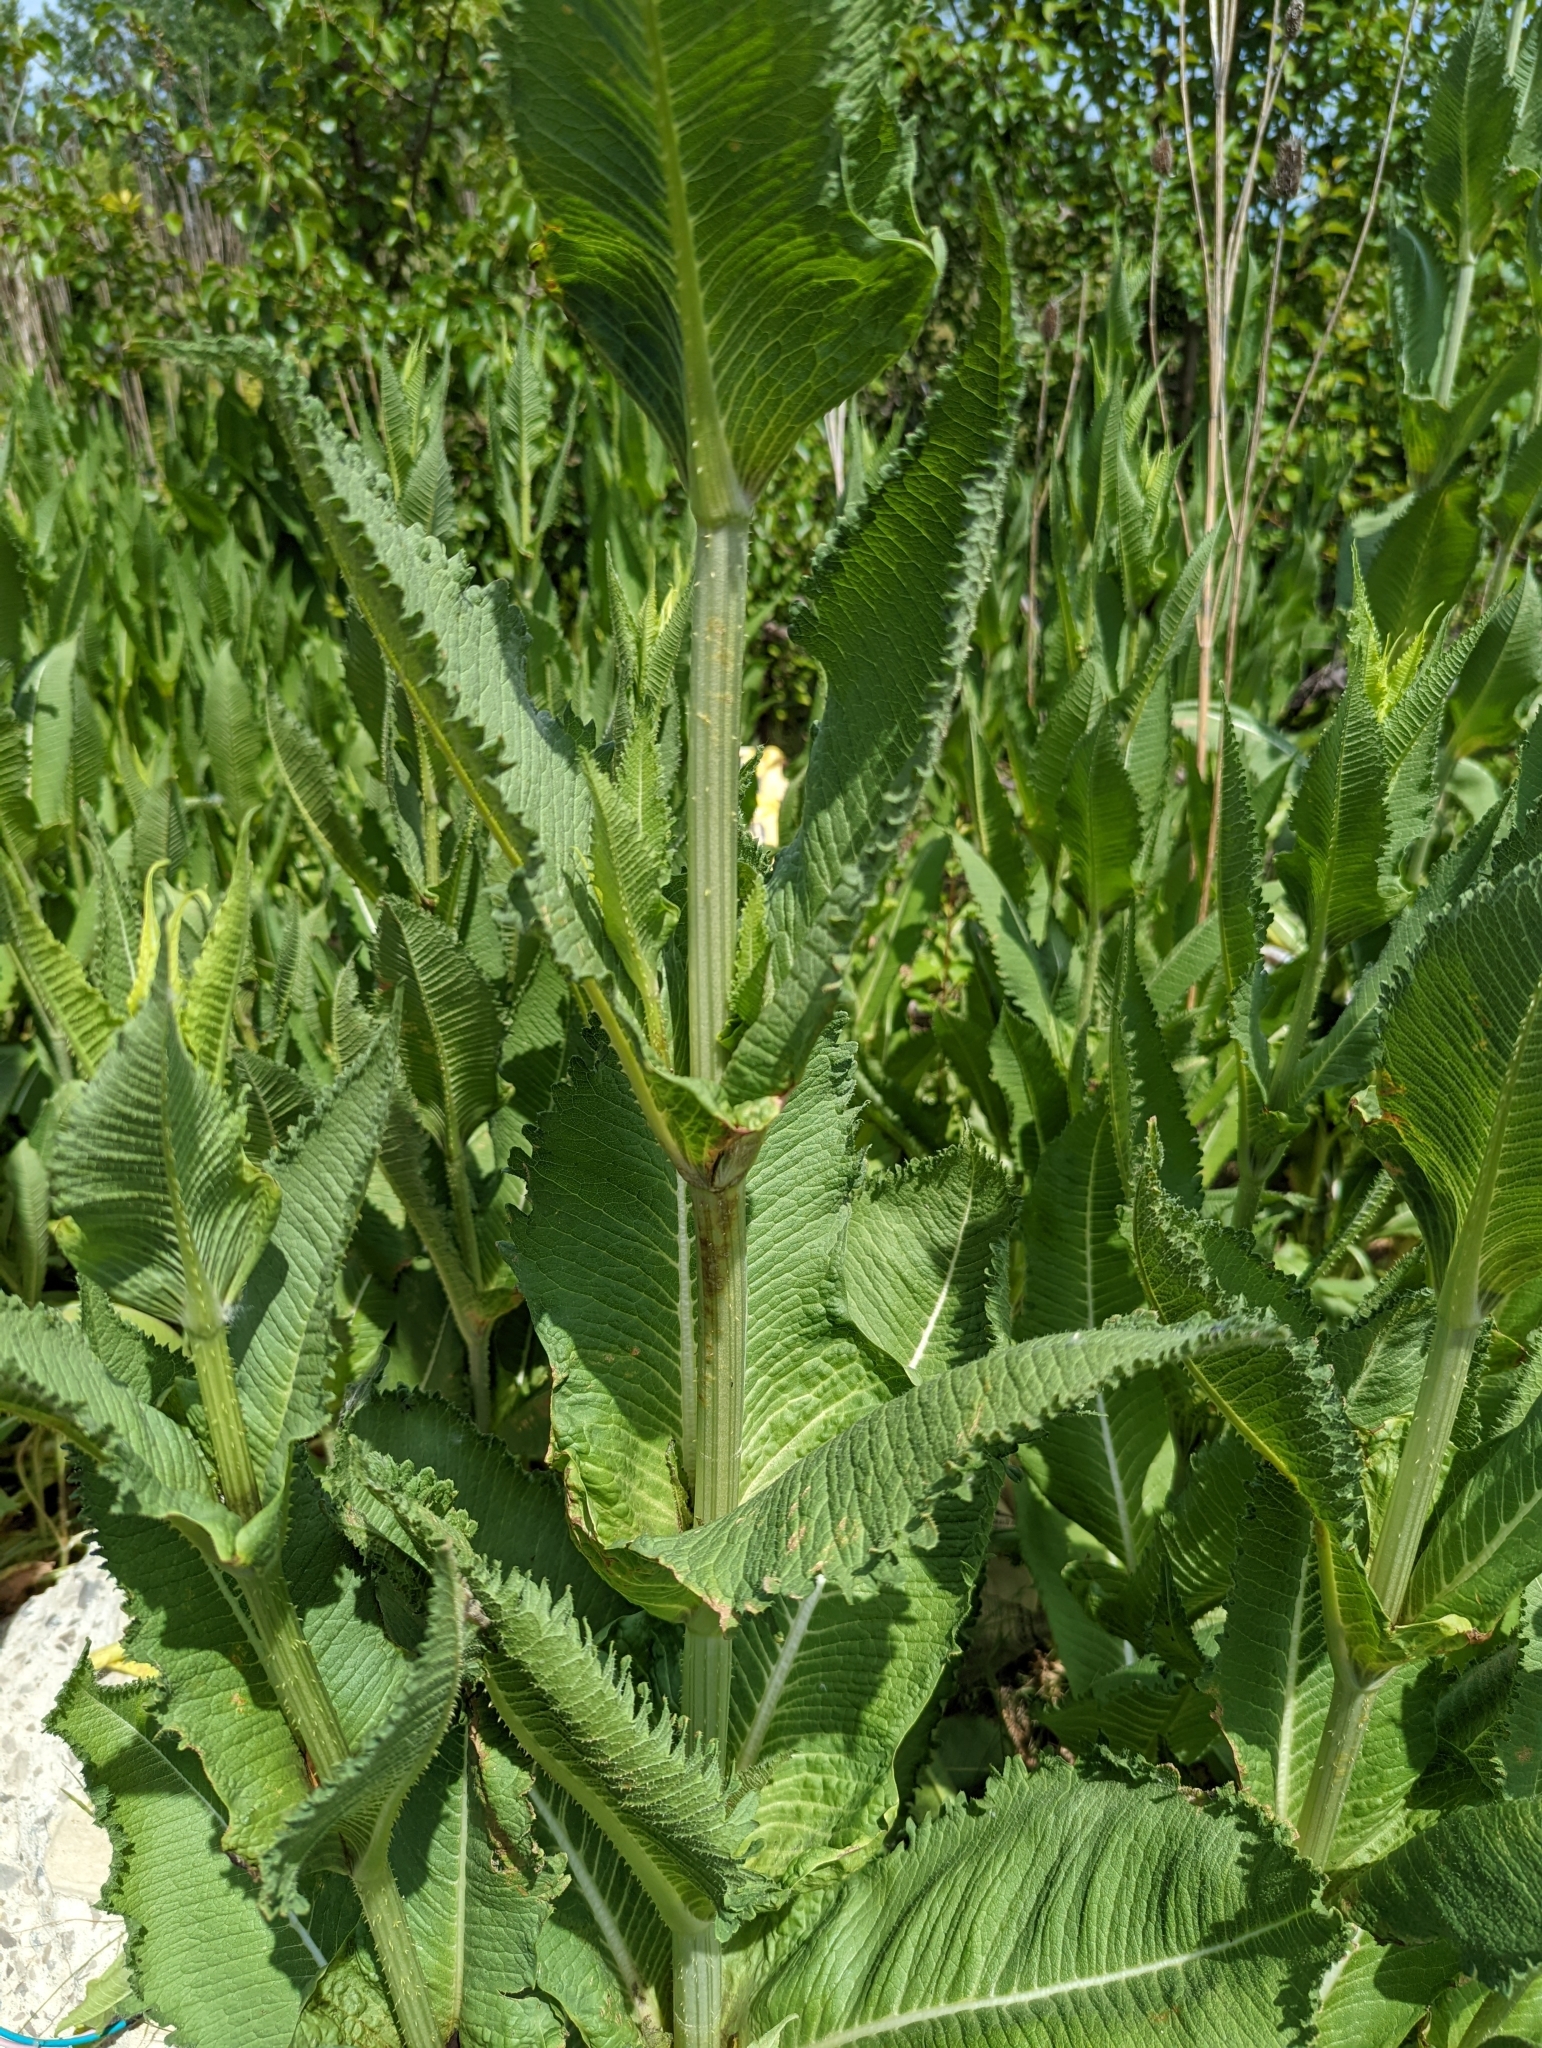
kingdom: Plantae
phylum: Tracheophyta
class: Magnoliopsida
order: Dipsacales
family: Caprifoliaceae
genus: Dipsacus
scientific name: Dipsacus laciniatus
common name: Cut-leaved teasel
